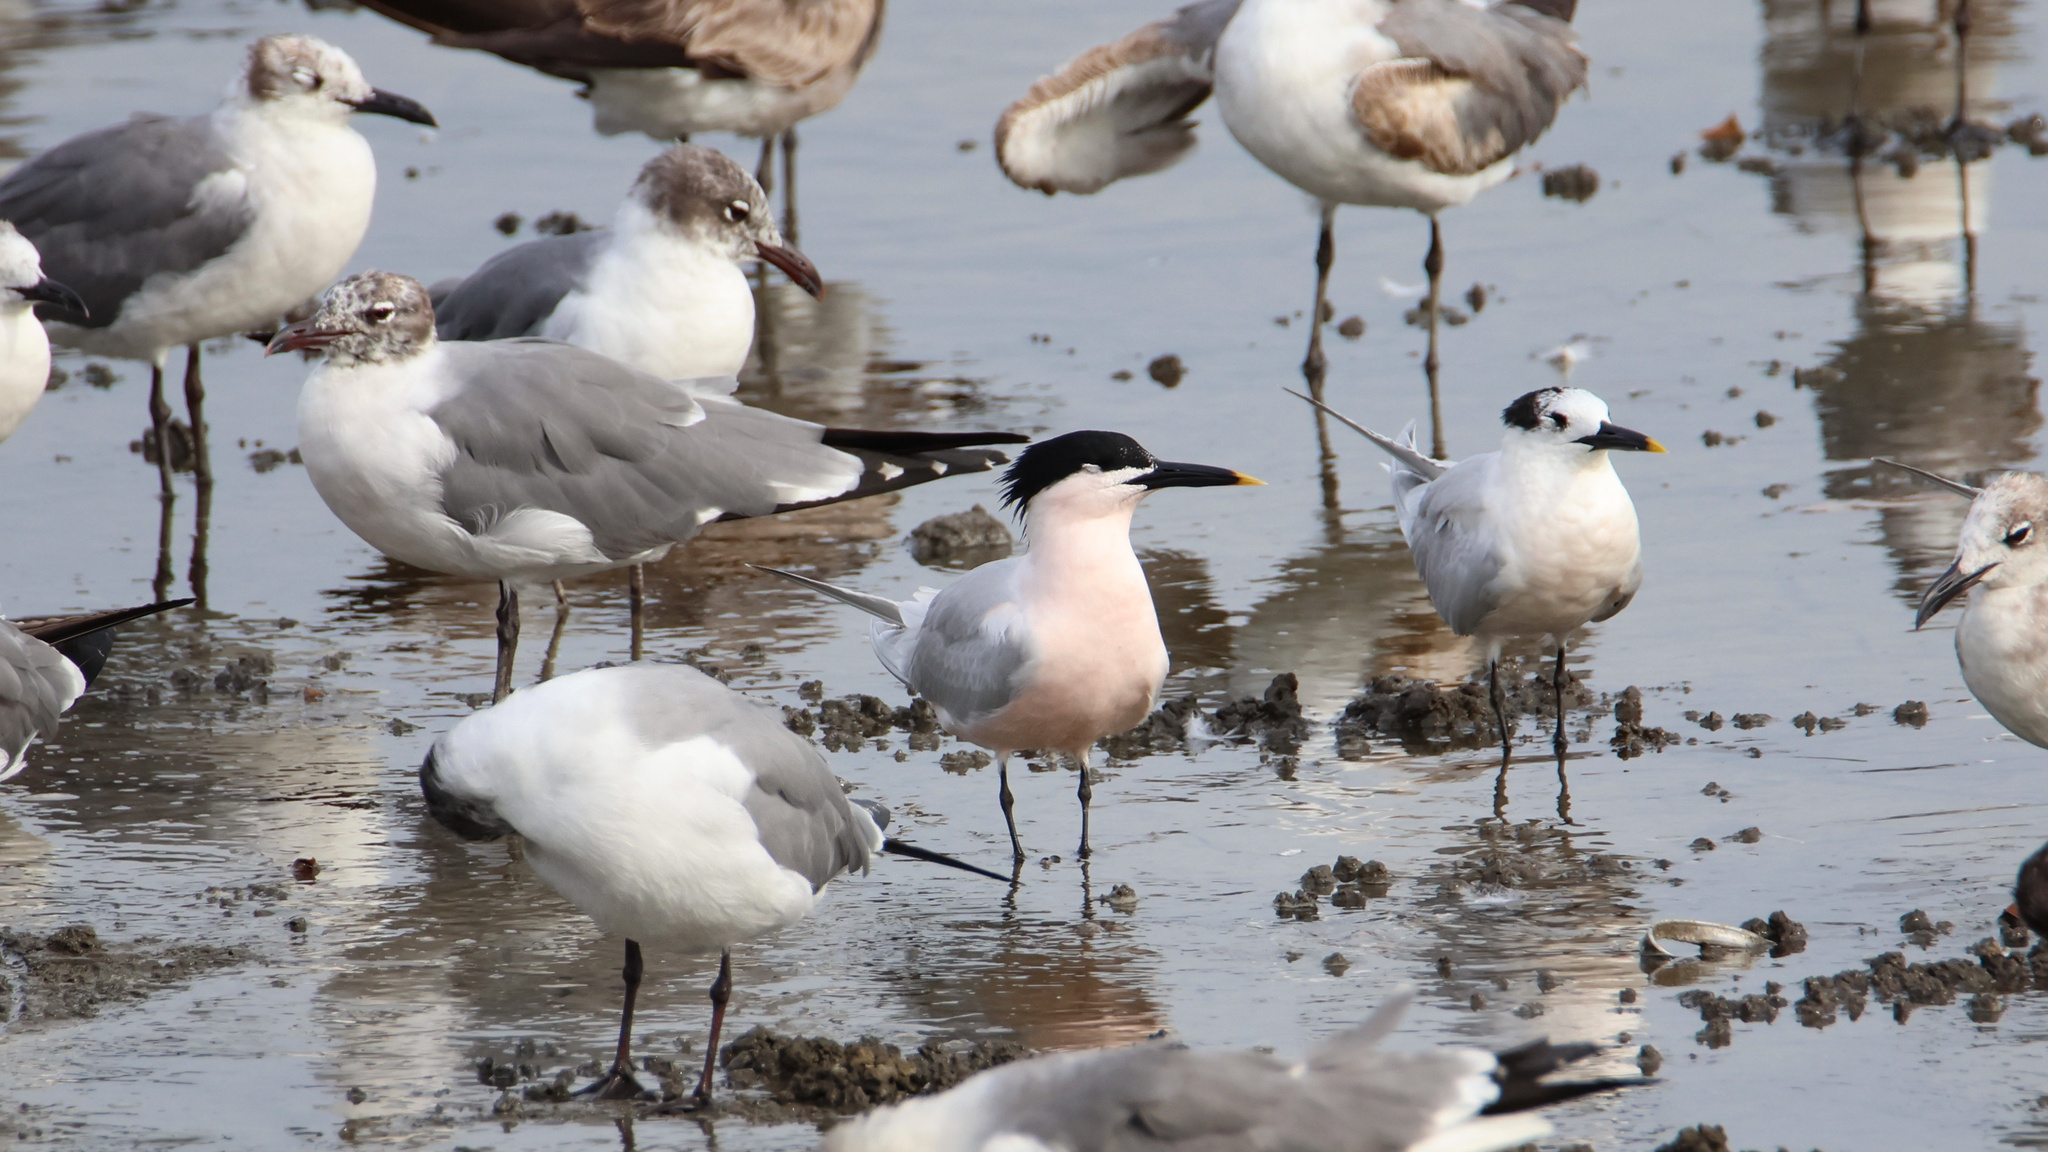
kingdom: Animalia
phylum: Chordata
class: Aves
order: Charadriiformes
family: Laridae
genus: Thalasseus
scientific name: Thalasseus sandvicensis
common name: Sandwich tern
